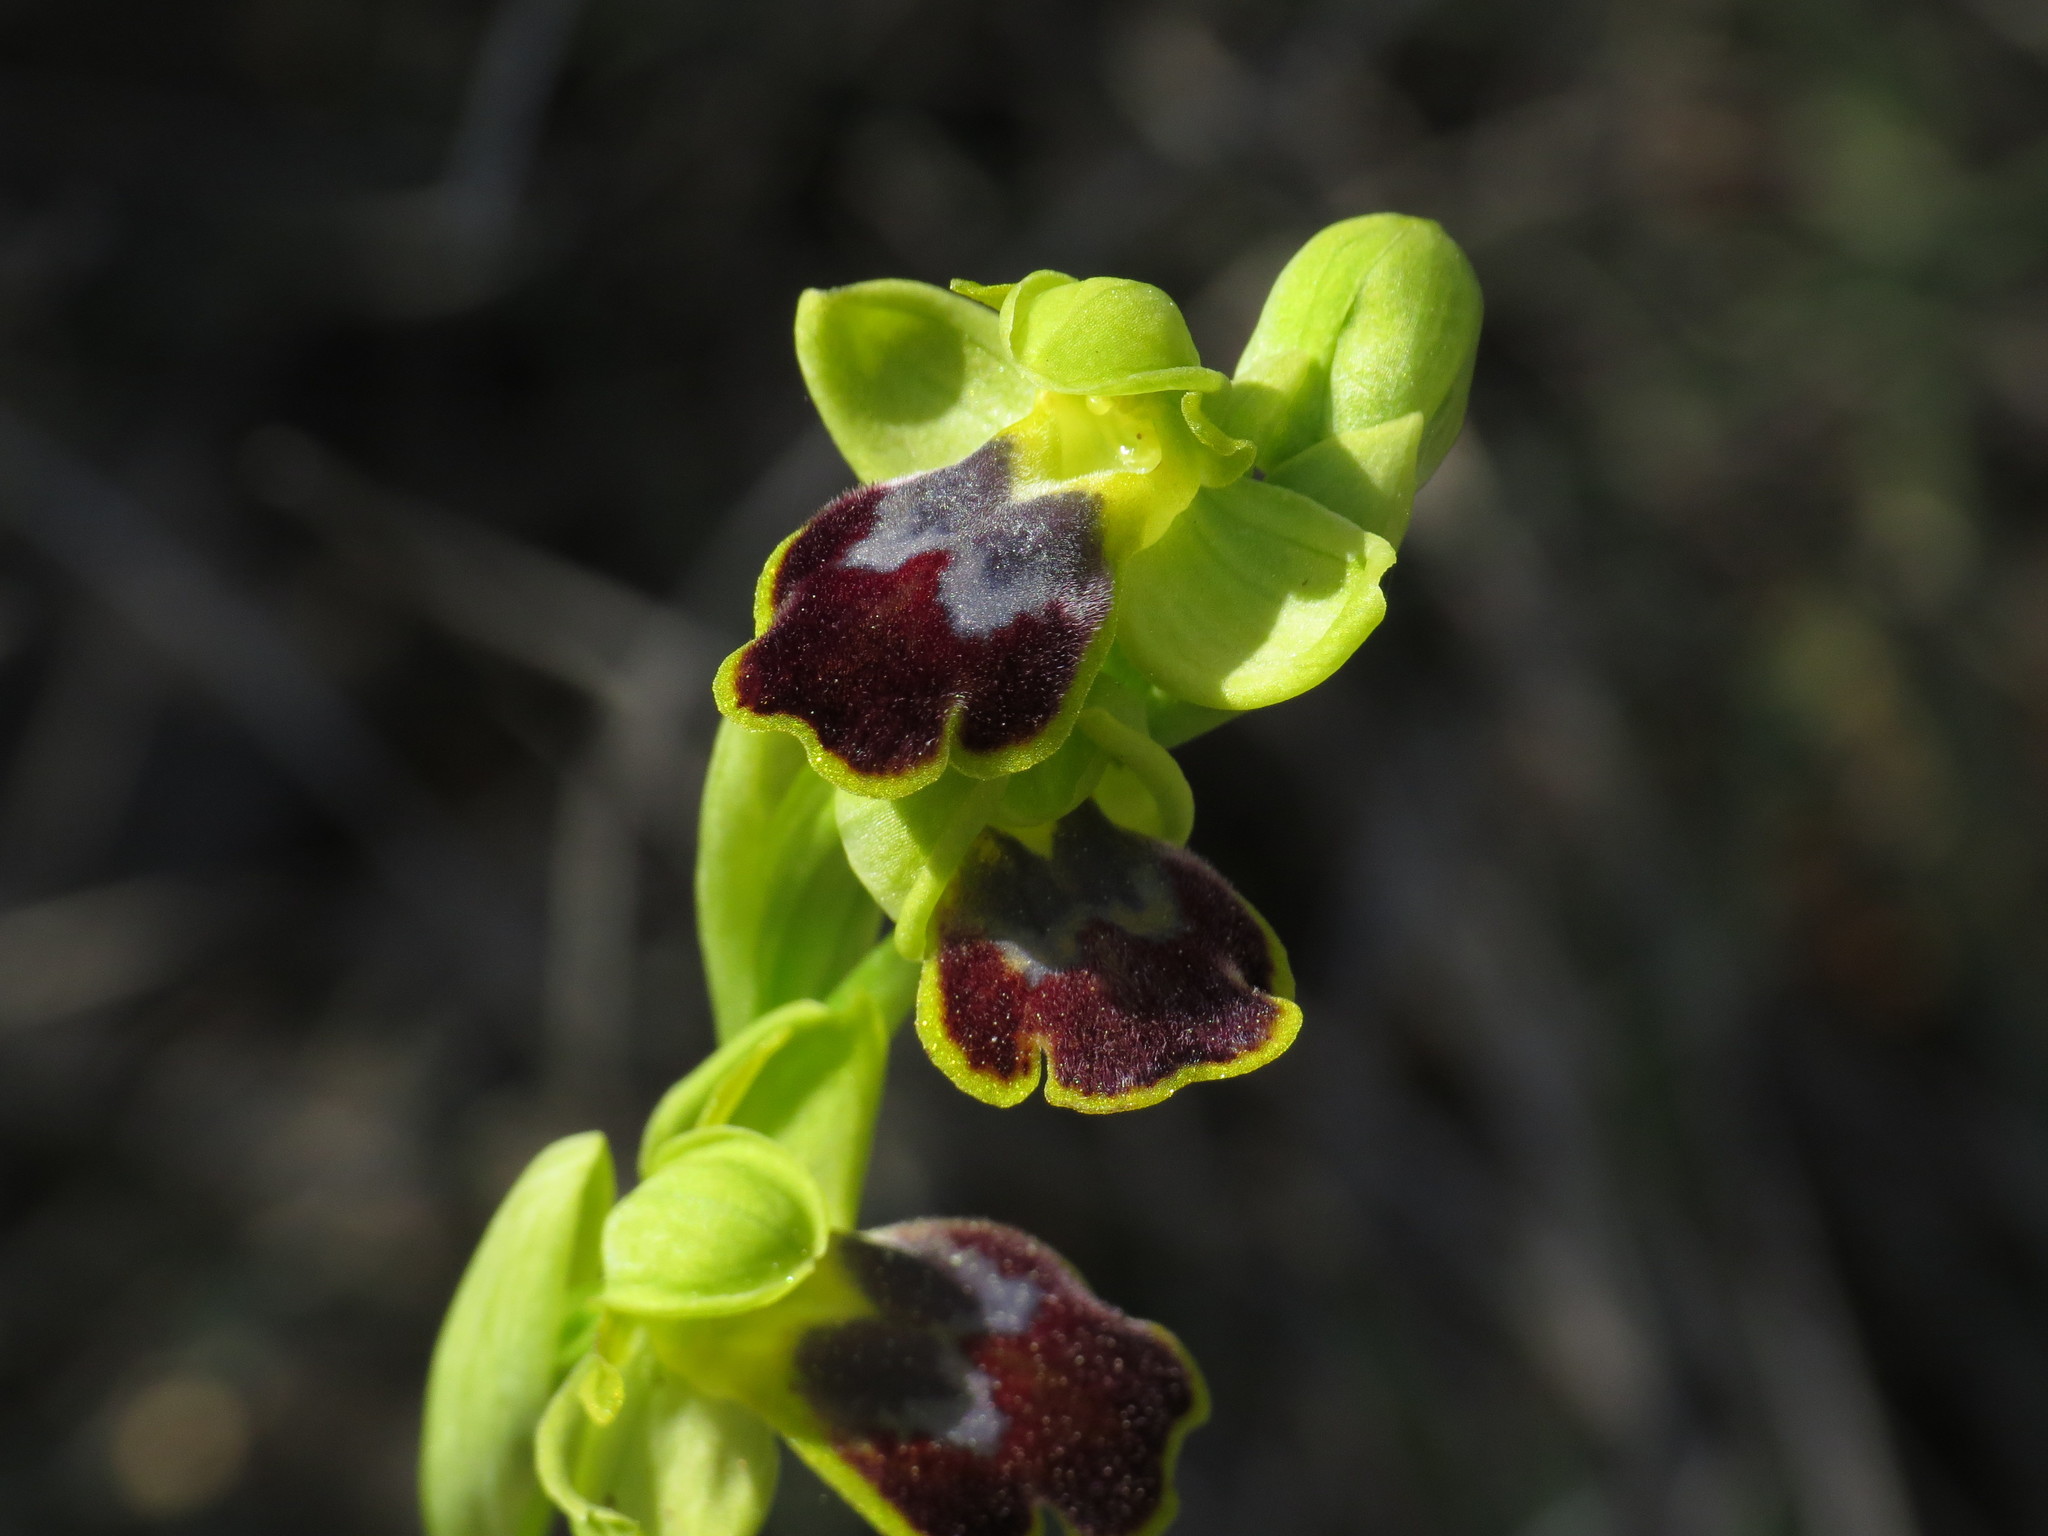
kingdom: Plantae
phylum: Tracheophyta
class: Liliopsida
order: Asparagales
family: Orchidaceae
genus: Ophrys
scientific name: Ophrys fusca
